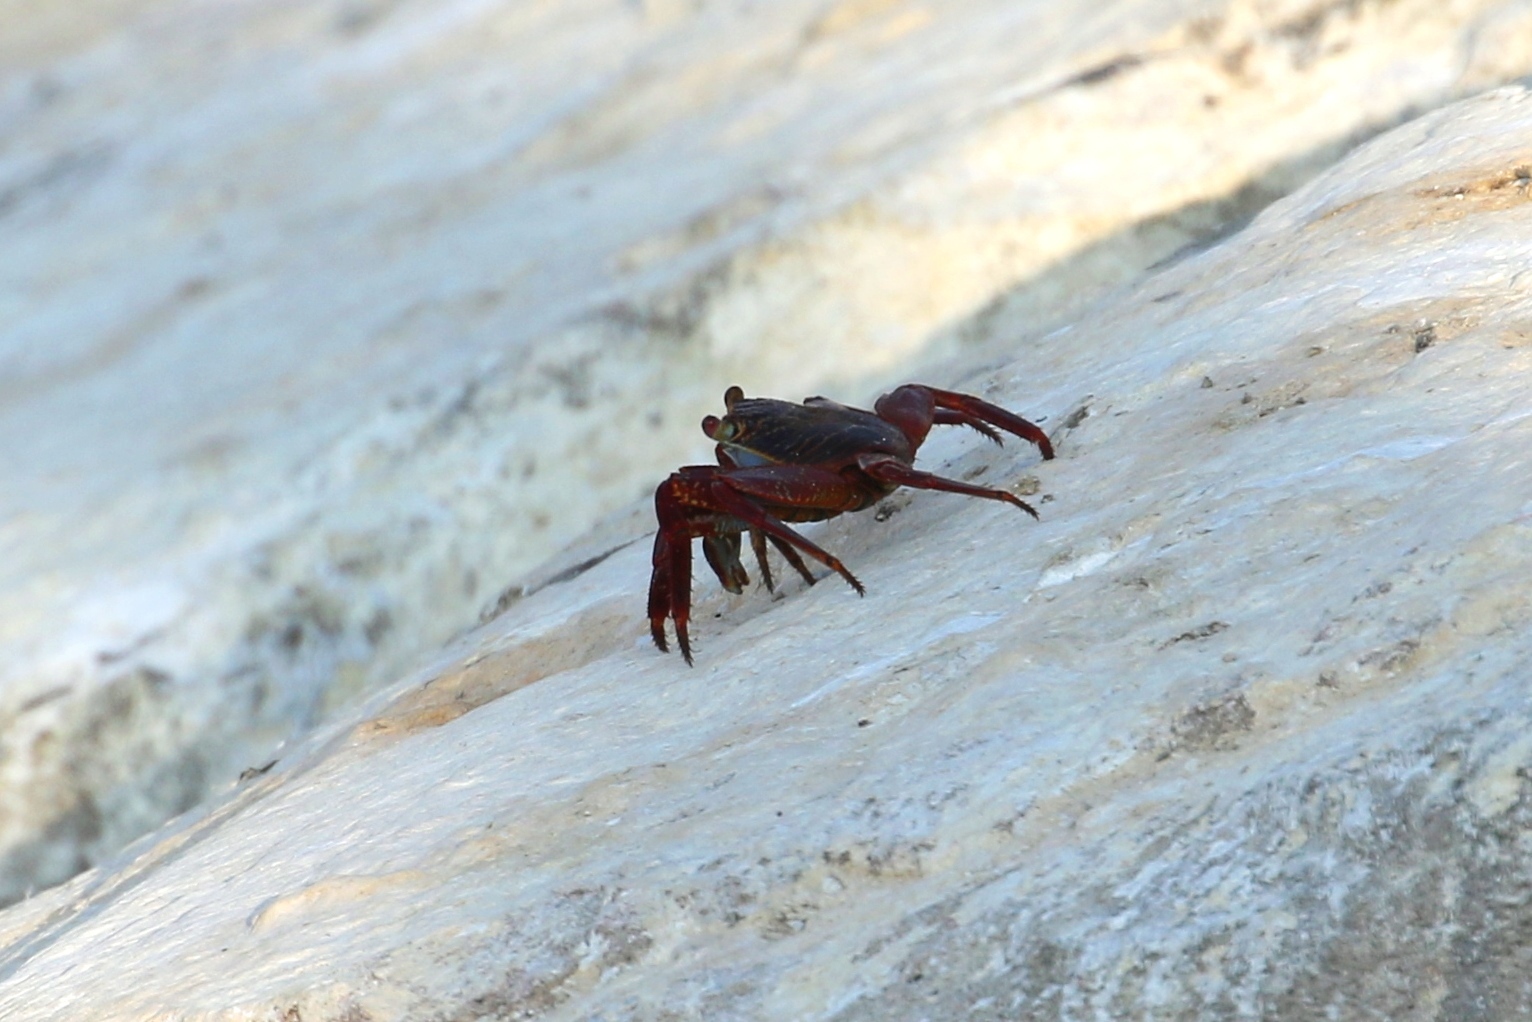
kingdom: Animalia
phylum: Arthropoda
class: Malacostraca
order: Decapoda
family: Grapsidae
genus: Grapsus
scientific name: Grapsus grapsus
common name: Sally lightfoot
